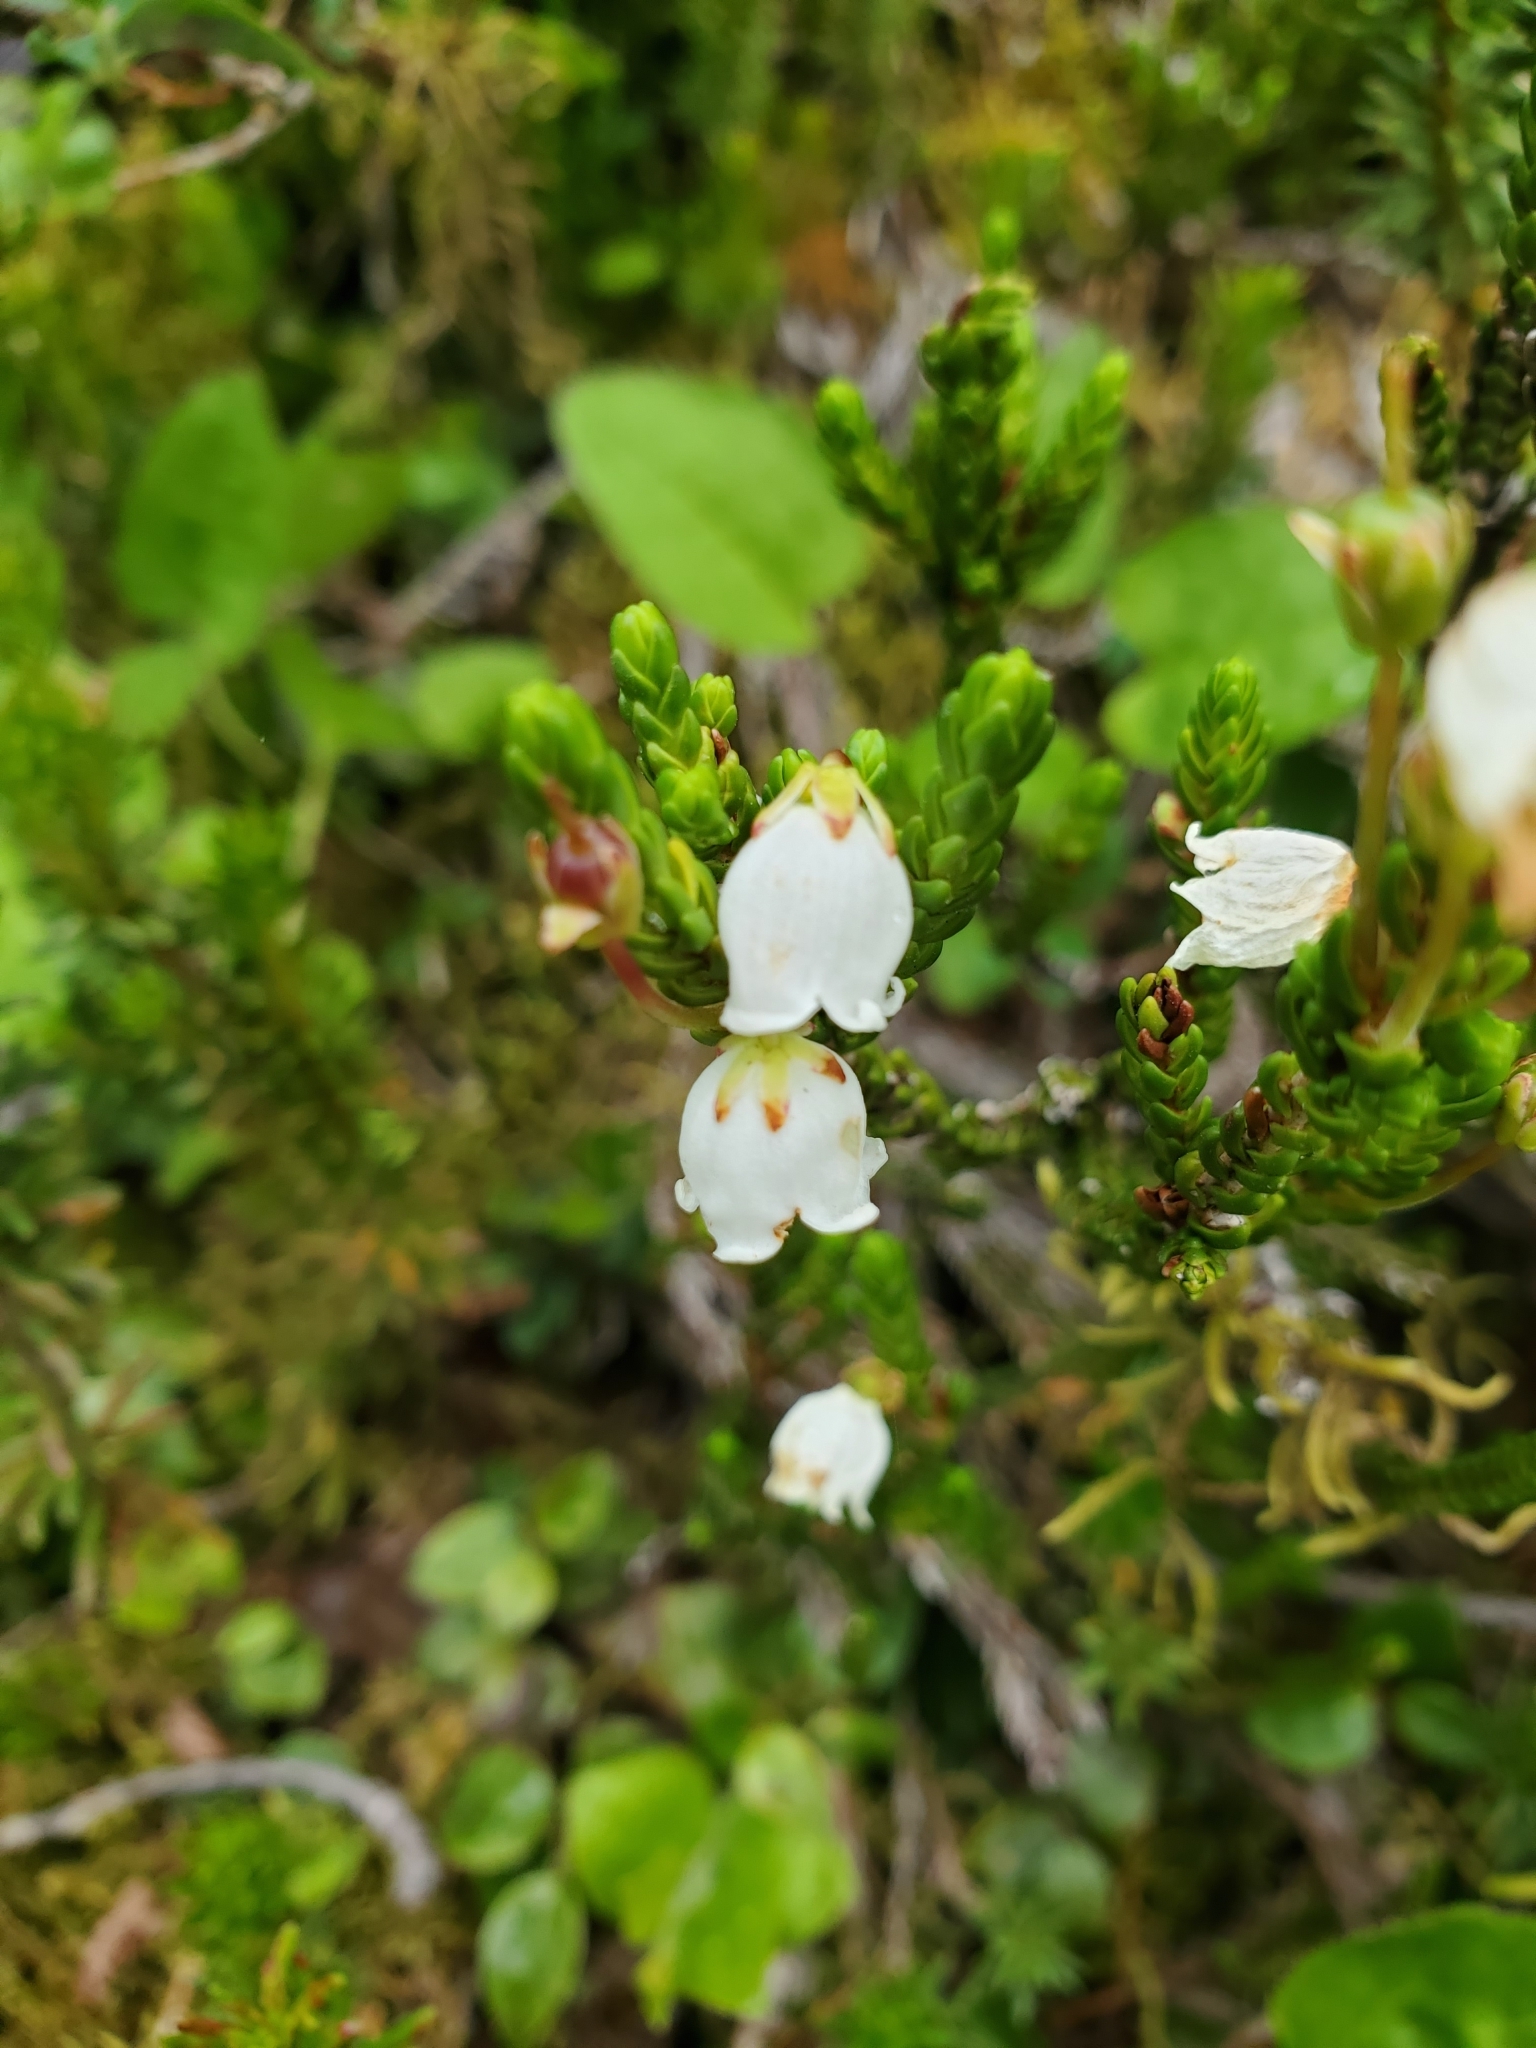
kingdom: Plantae
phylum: Tracheophyta
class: Magnoliopsida
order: Ericales
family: Ericaceae
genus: Cassiope
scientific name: Cassiope mertensiana
